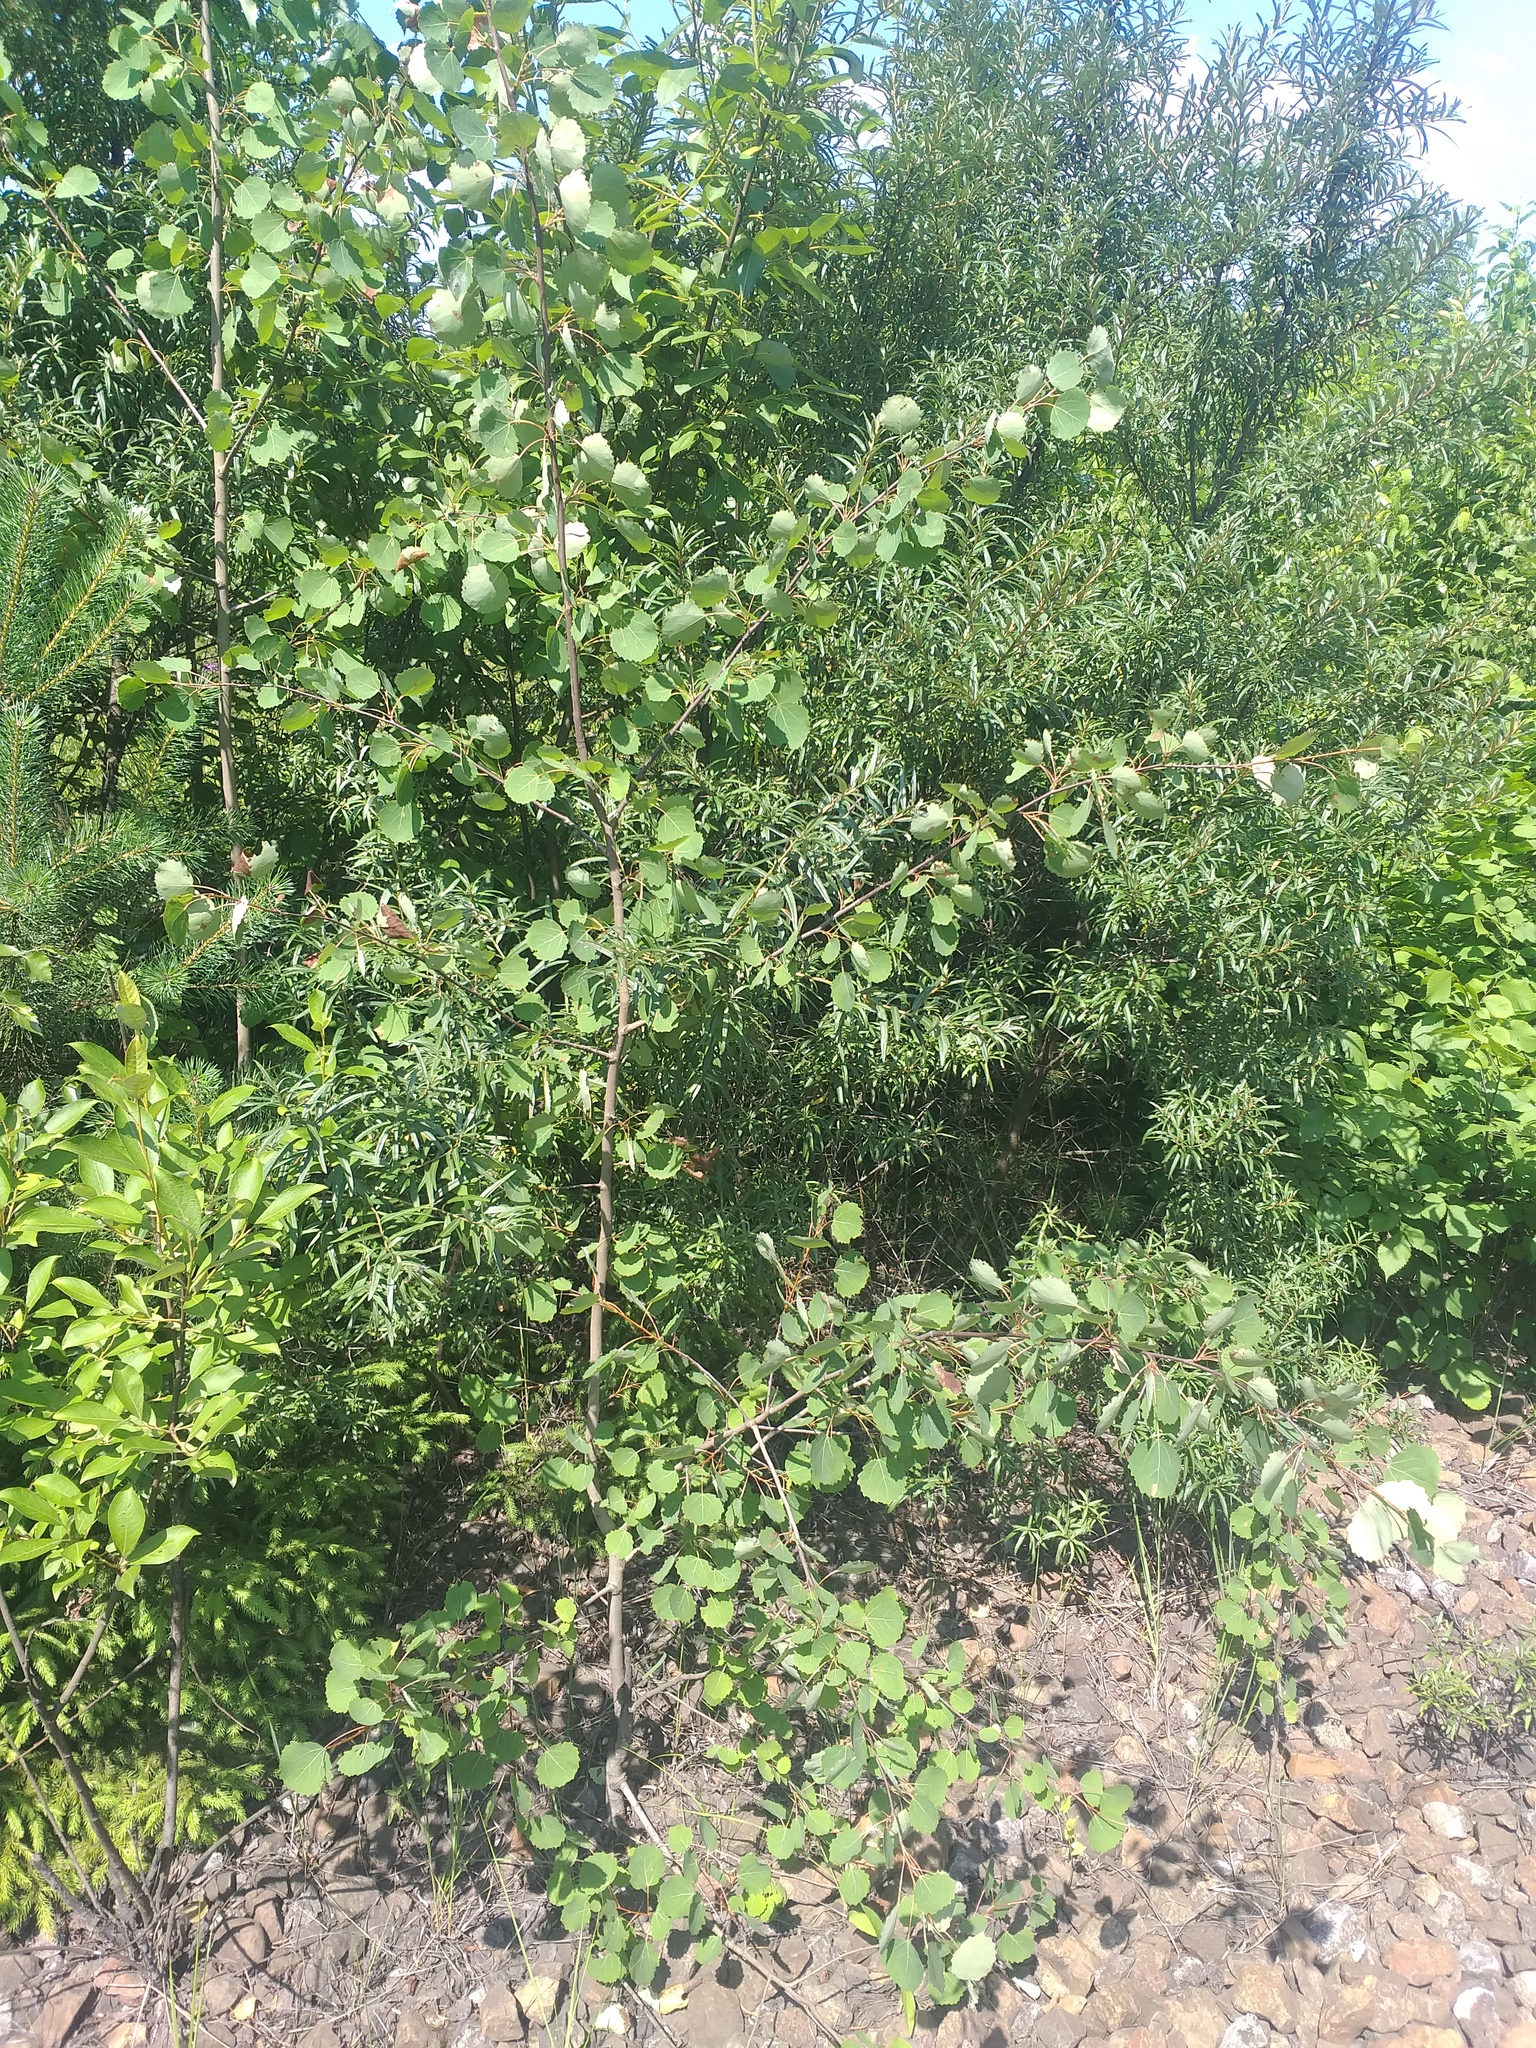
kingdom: Plantae
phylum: Tracheophyta
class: Magnoliopsida
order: Malpighiales
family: Salicaceae
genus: Populus
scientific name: Populus tremula
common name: European aspen
